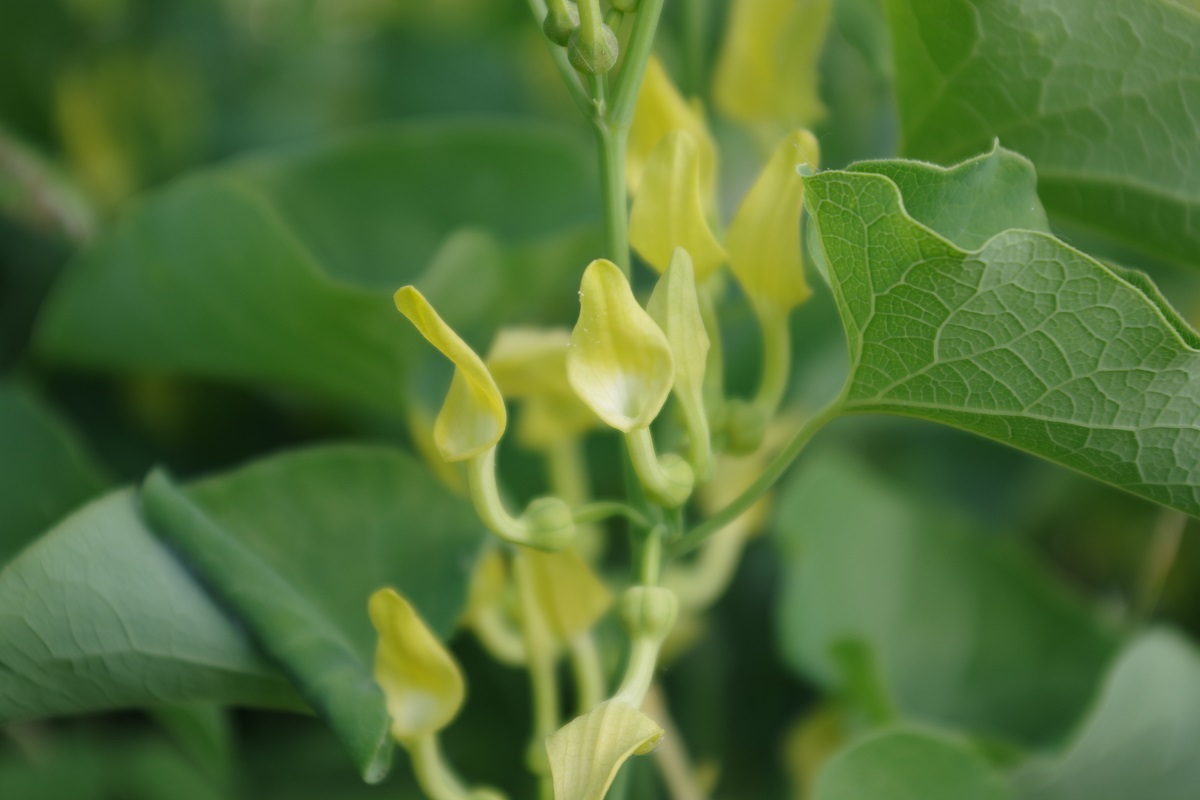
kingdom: Plantae
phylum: Tracheophyta
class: Magnoliopsida
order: Piperales
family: Aristolochiaceae
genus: Aristolochia
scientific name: Aristolochia clematitis
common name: Birthwort
